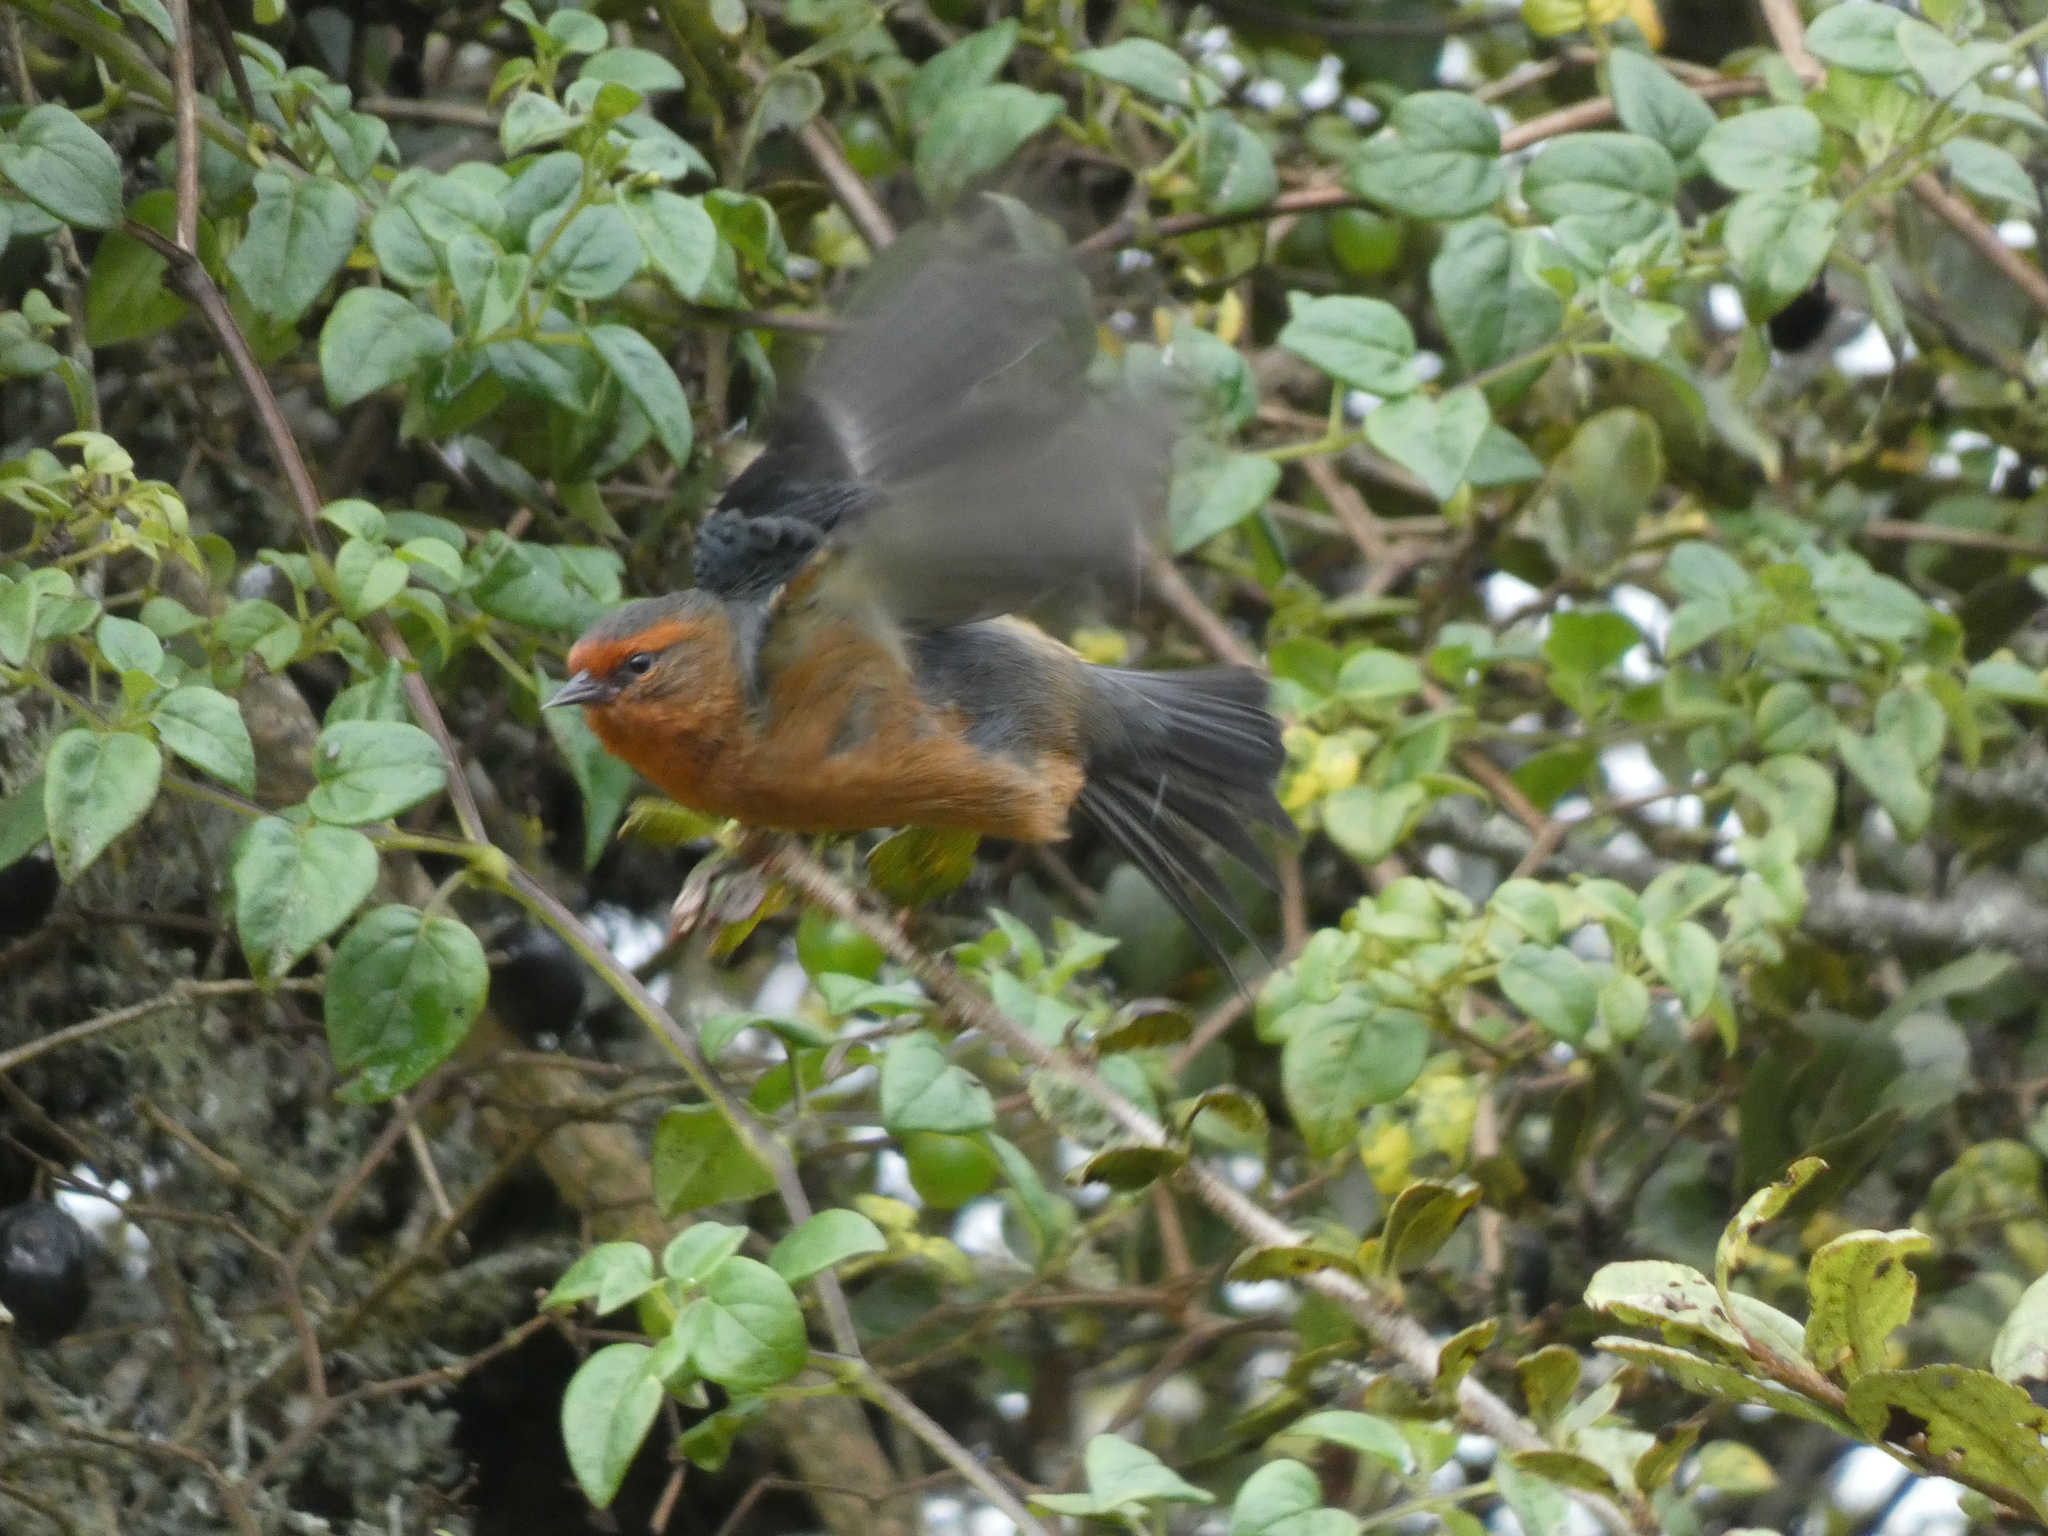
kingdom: Animalia
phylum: Chordata
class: Aves
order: Passeriformes
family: Thraupidae
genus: Conirostrum
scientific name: Conirostrum rufum
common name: Rufous-browed conebill
